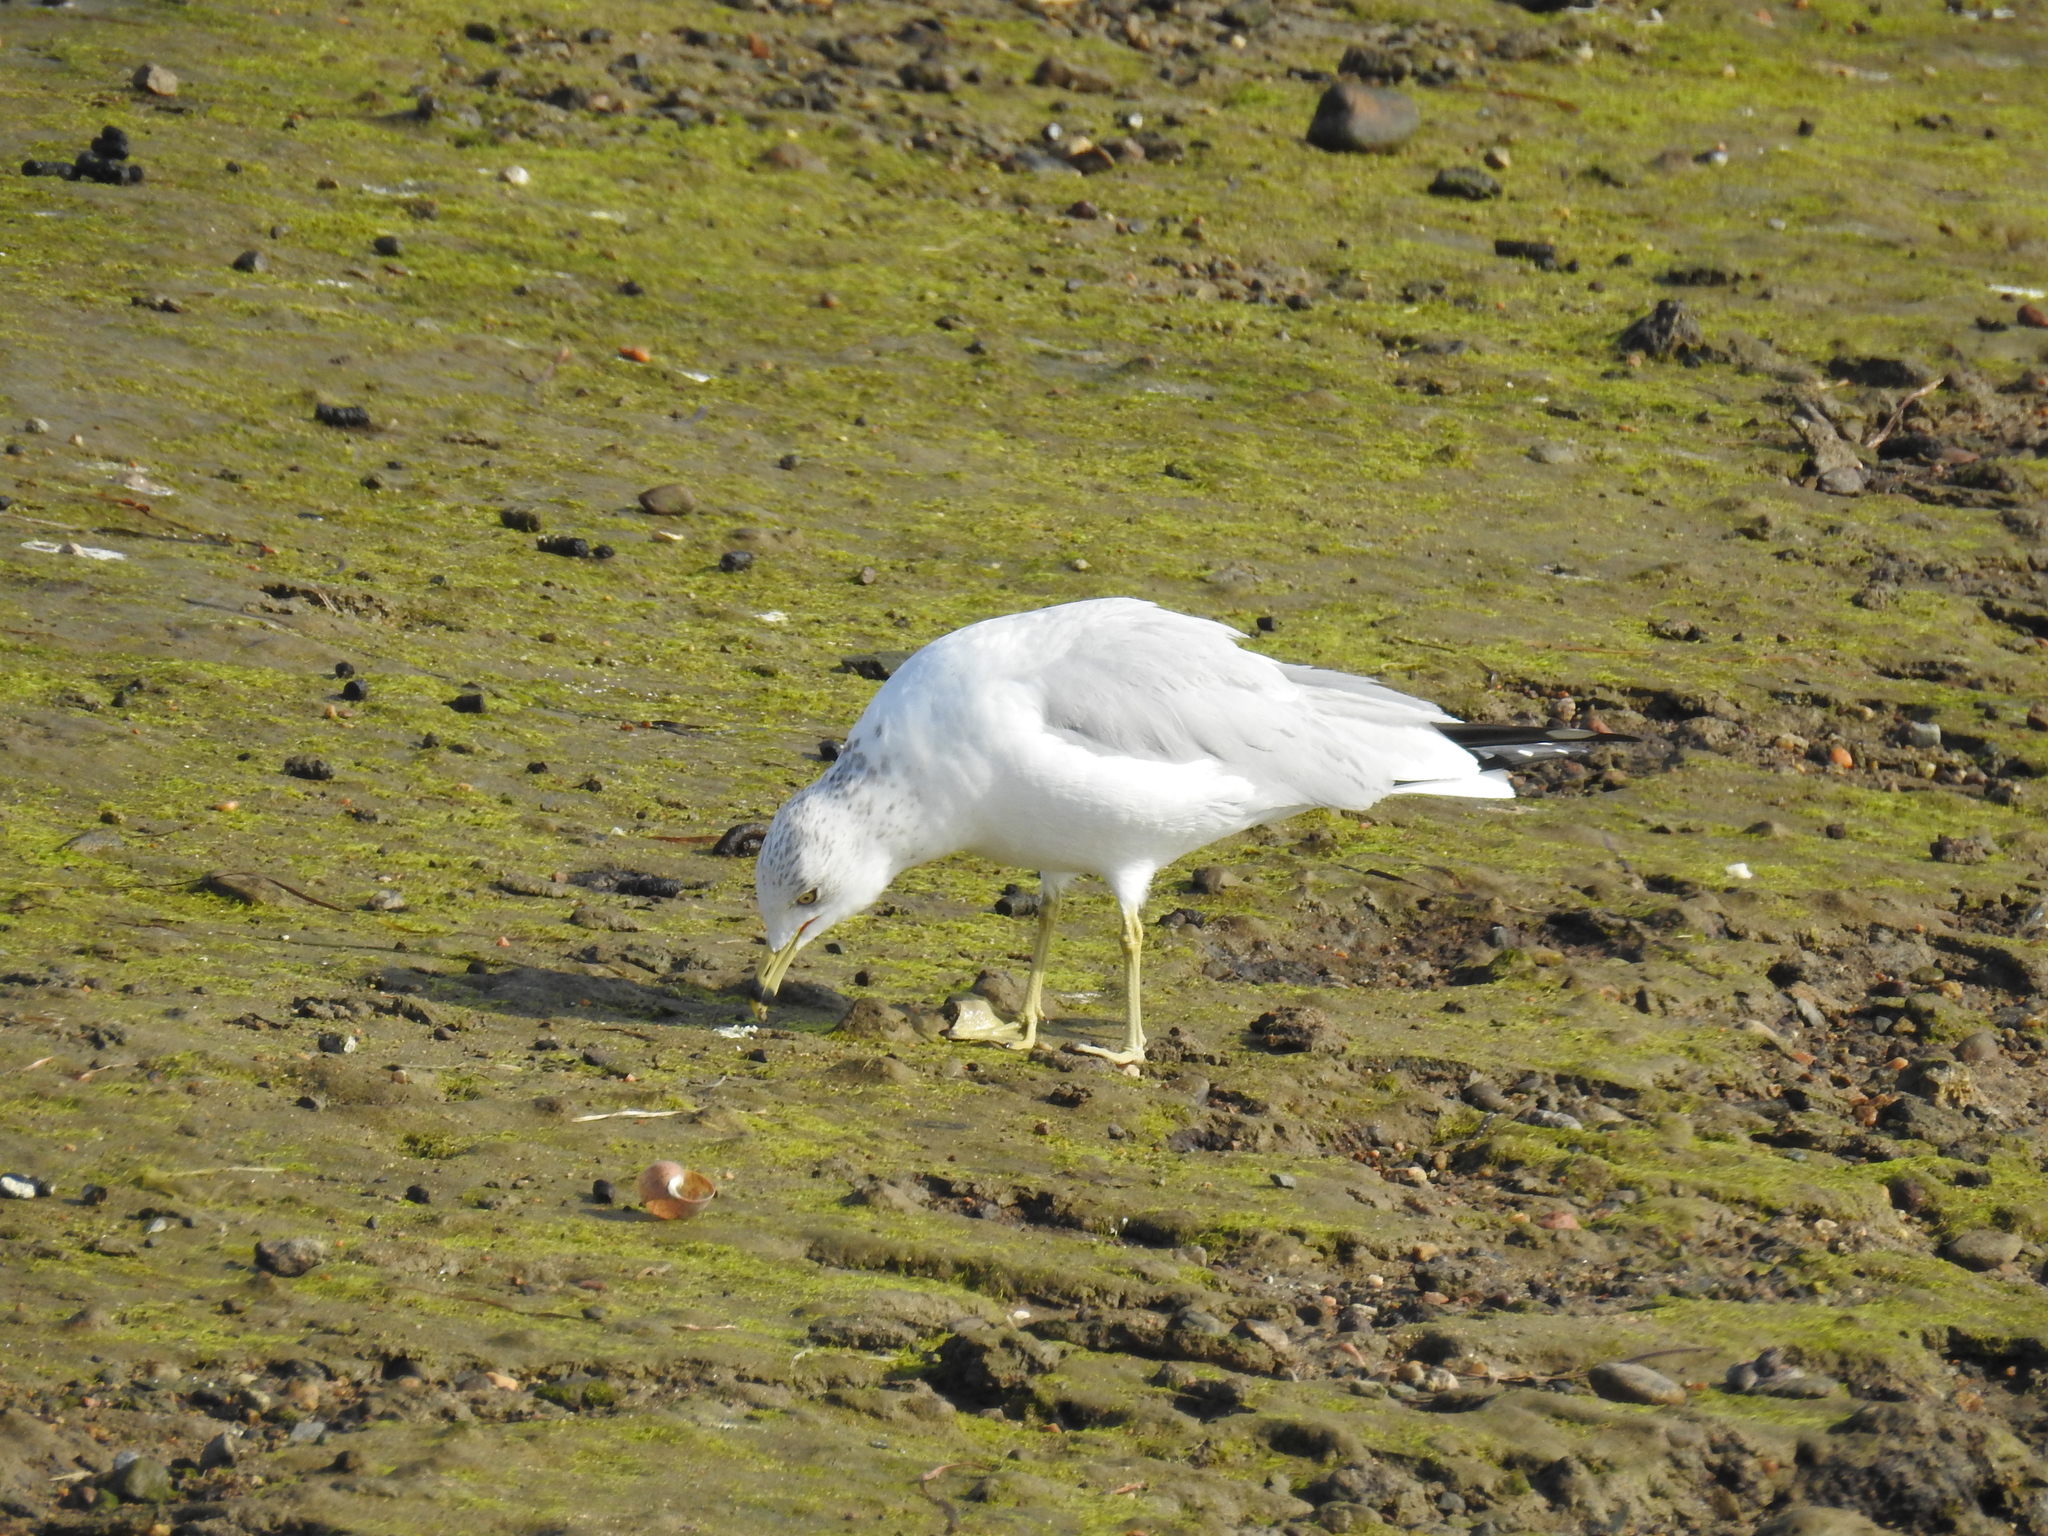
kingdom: Animalia
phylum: Chordata
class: Aves
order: Charadriiformes
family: Laridae
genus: Larus
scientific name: Larus delawarensis
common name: Ring-billed gull
